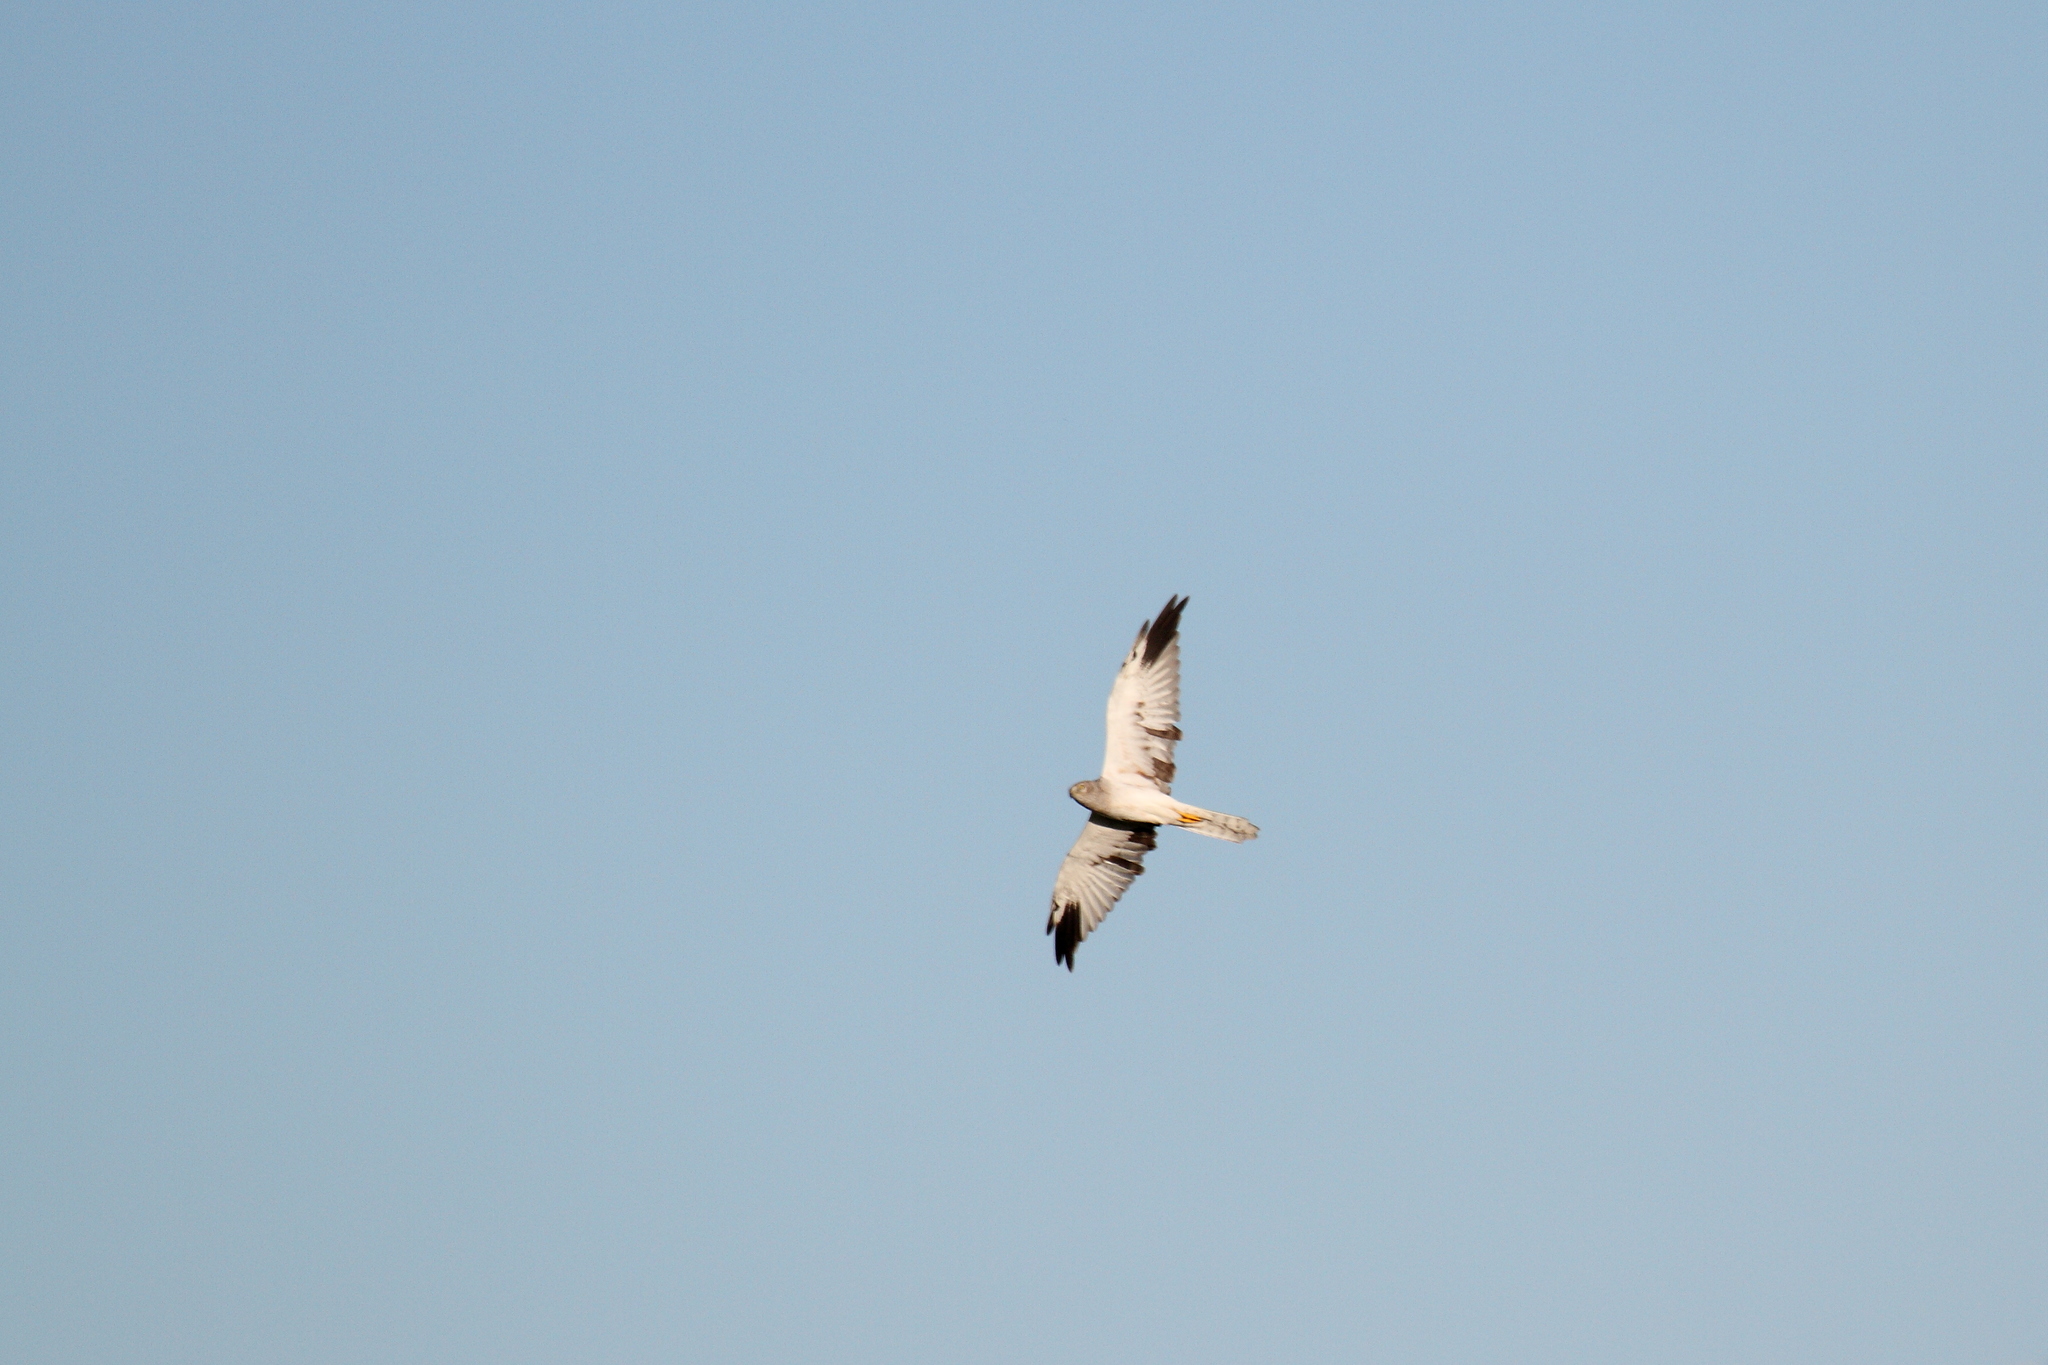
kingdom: Animalia
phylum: Chordata
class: Aves
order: Accipitriformes
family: Accipitridae
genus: Circus
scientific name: Circus macrourus
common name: Pallid harrier
